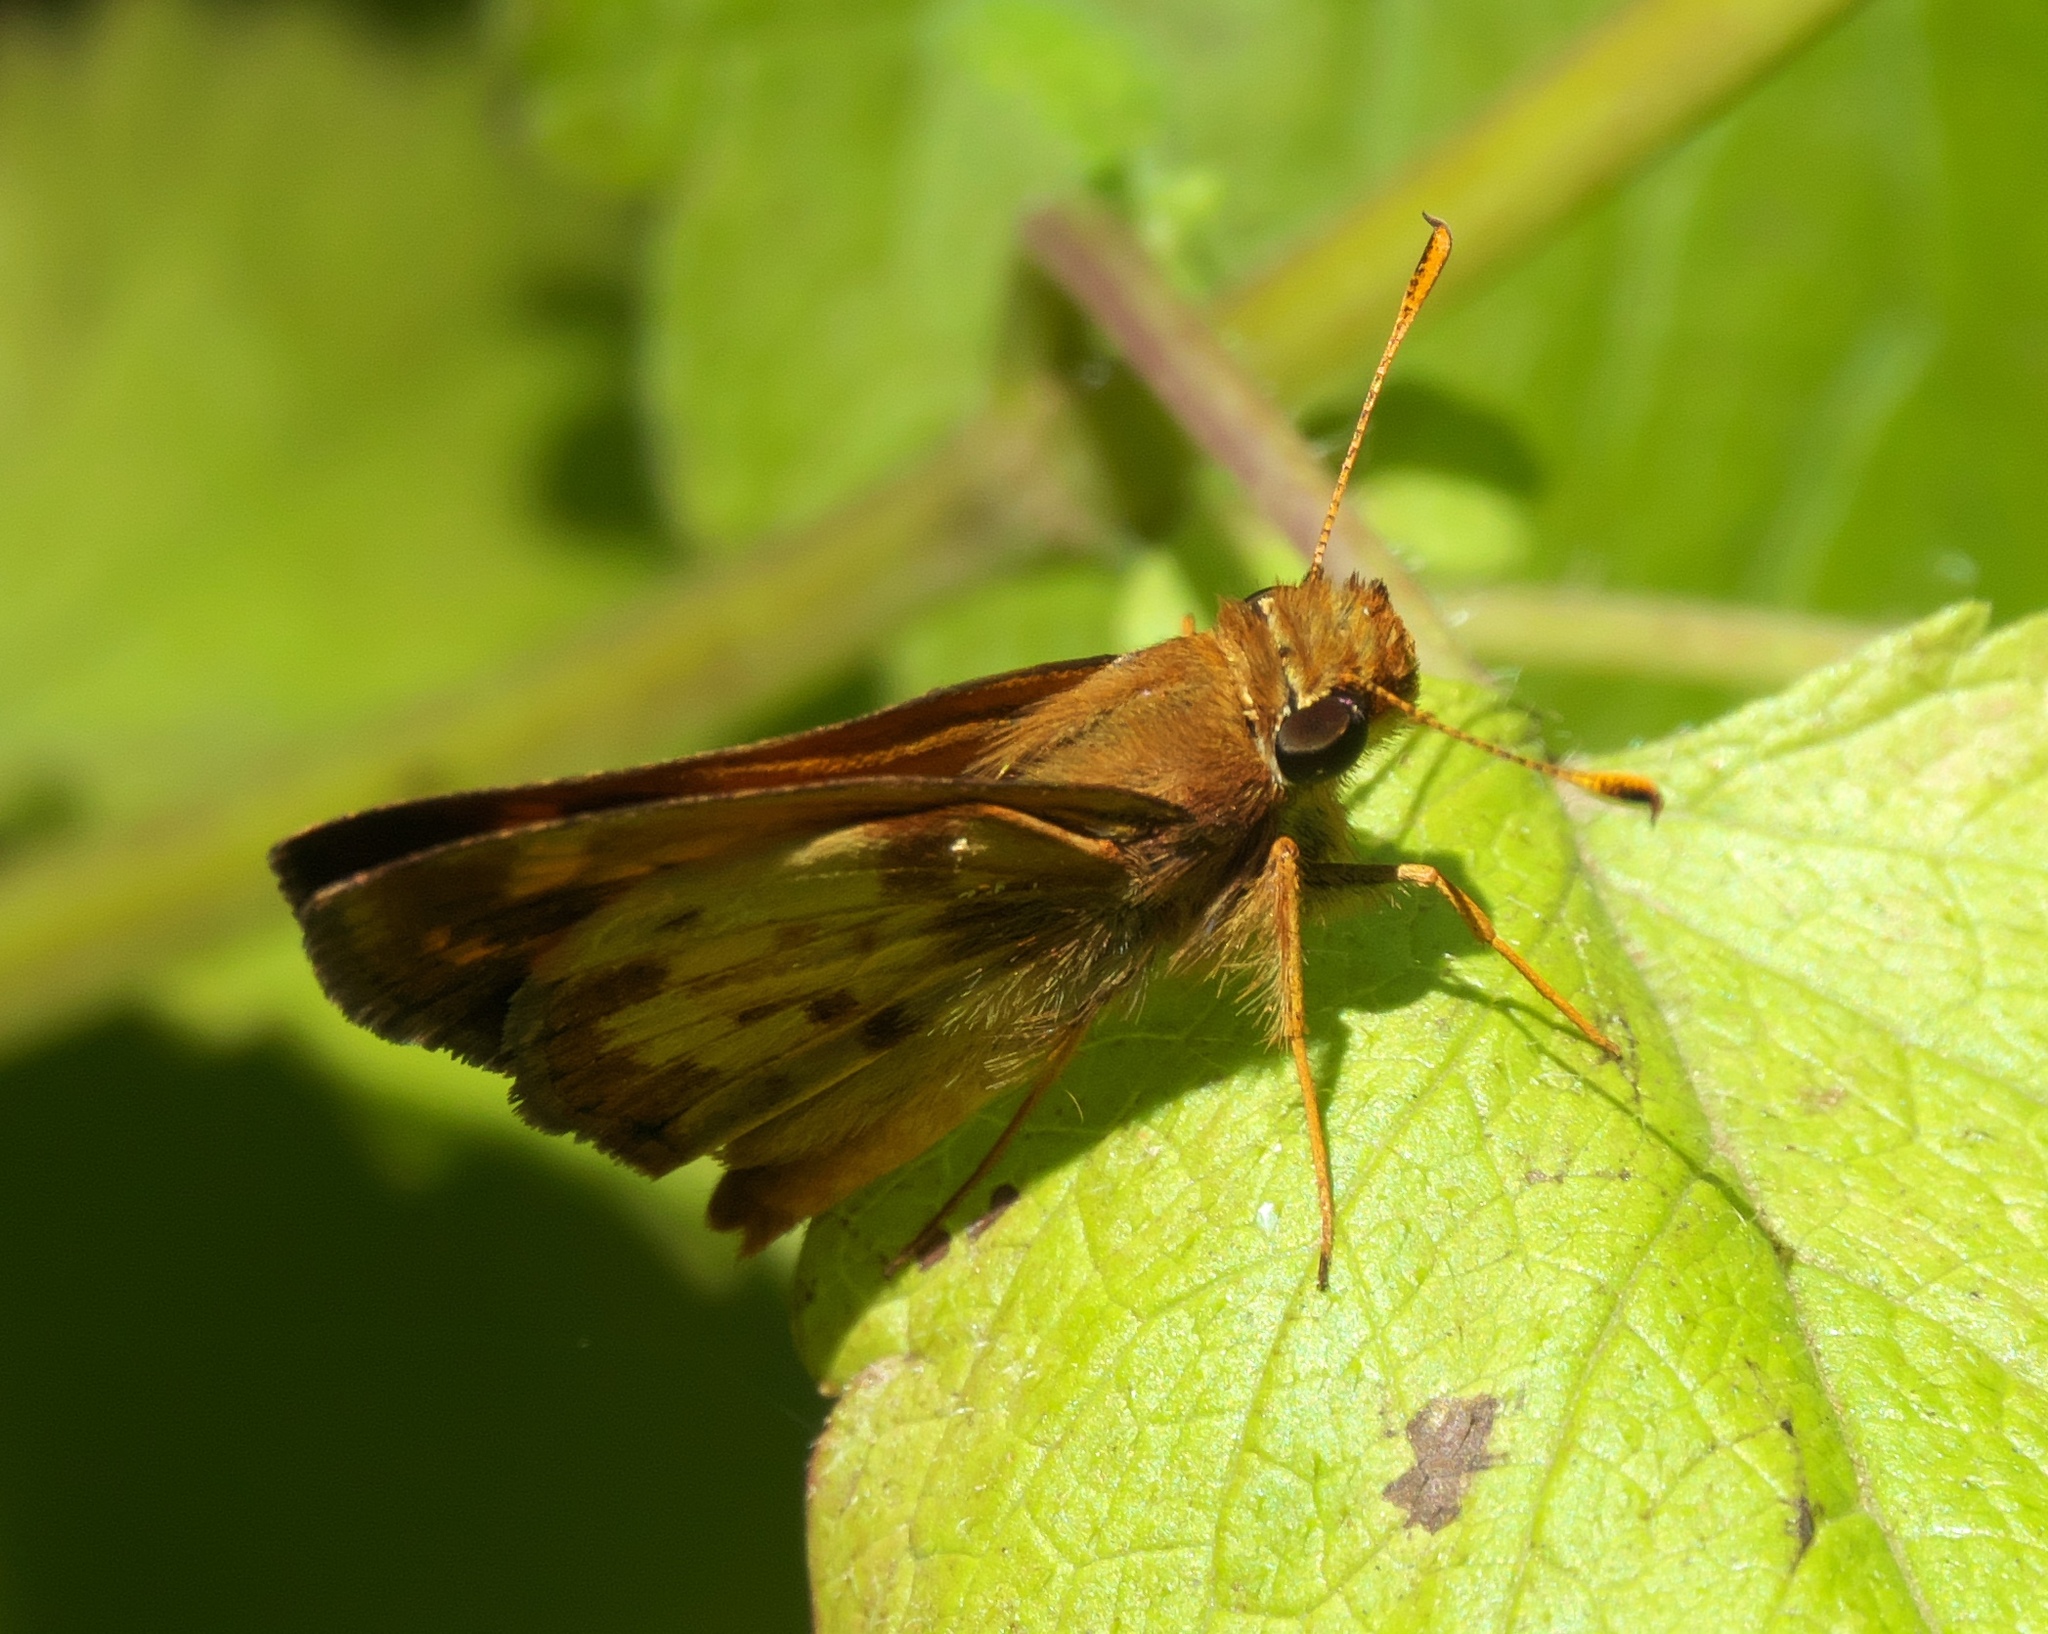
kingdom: Animalia
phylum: Arthropoda
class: Insecta
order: Lepidoptera
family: Hesperiidae
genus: Lon
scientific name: Lon zabulon
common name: Zabulon skipper
